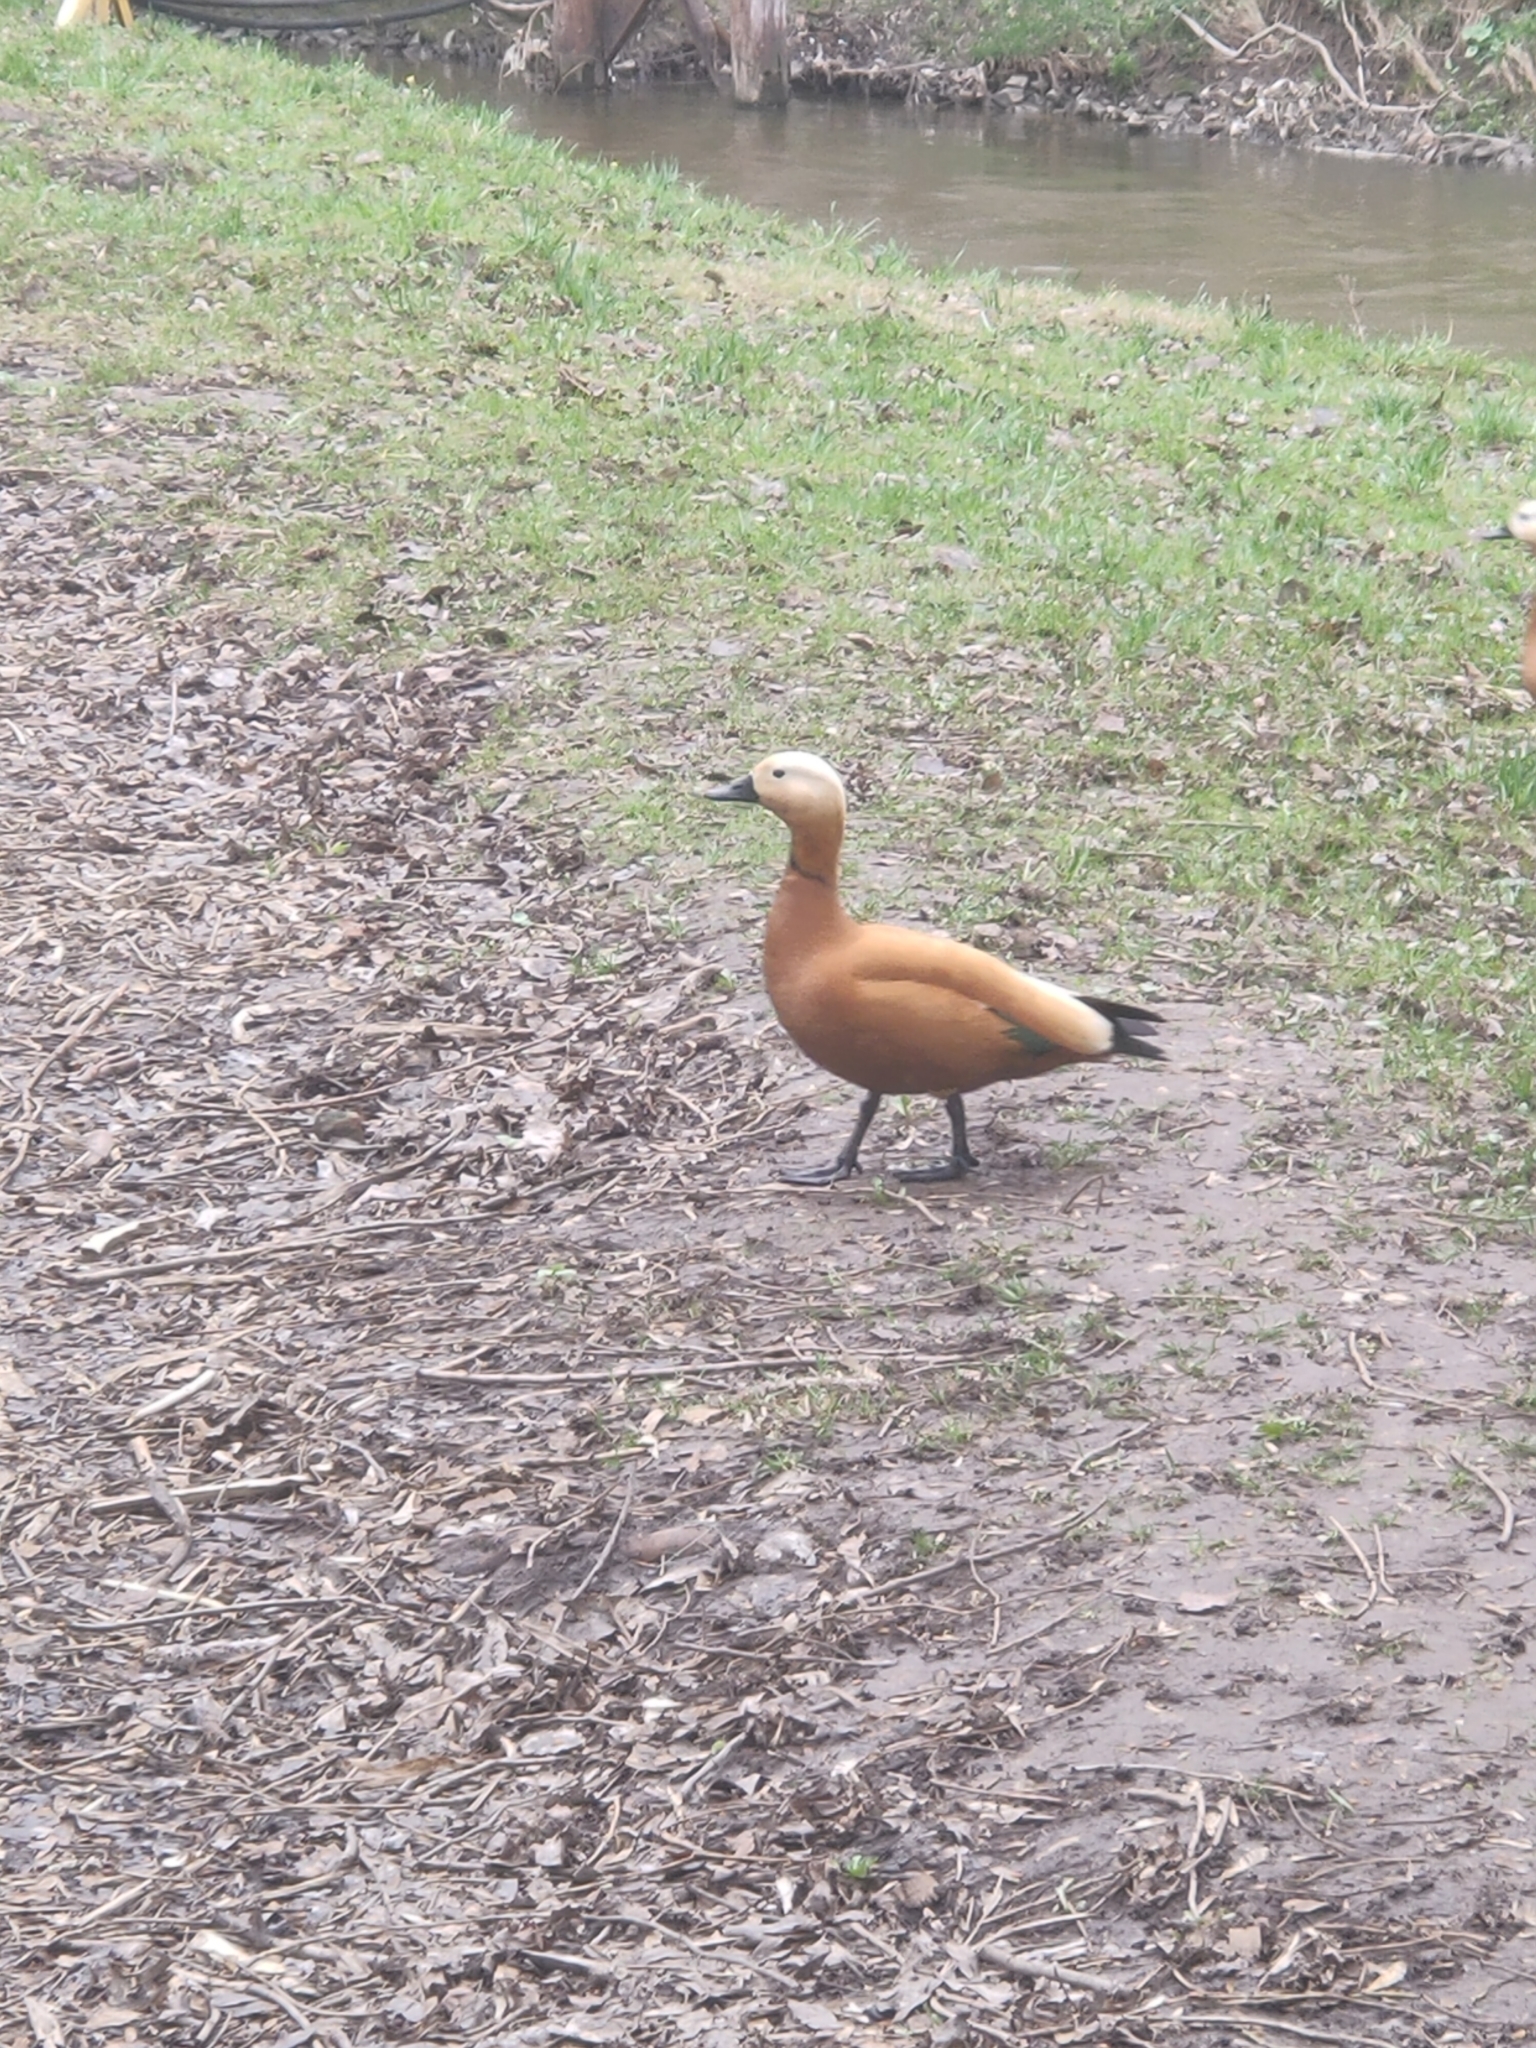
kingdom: Animalia
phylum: Chordata
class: Aves
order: Anseriformes
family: Anatidae
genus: Tadorna
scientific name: Tadorna ferruginea
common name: Ruddy shelduck
